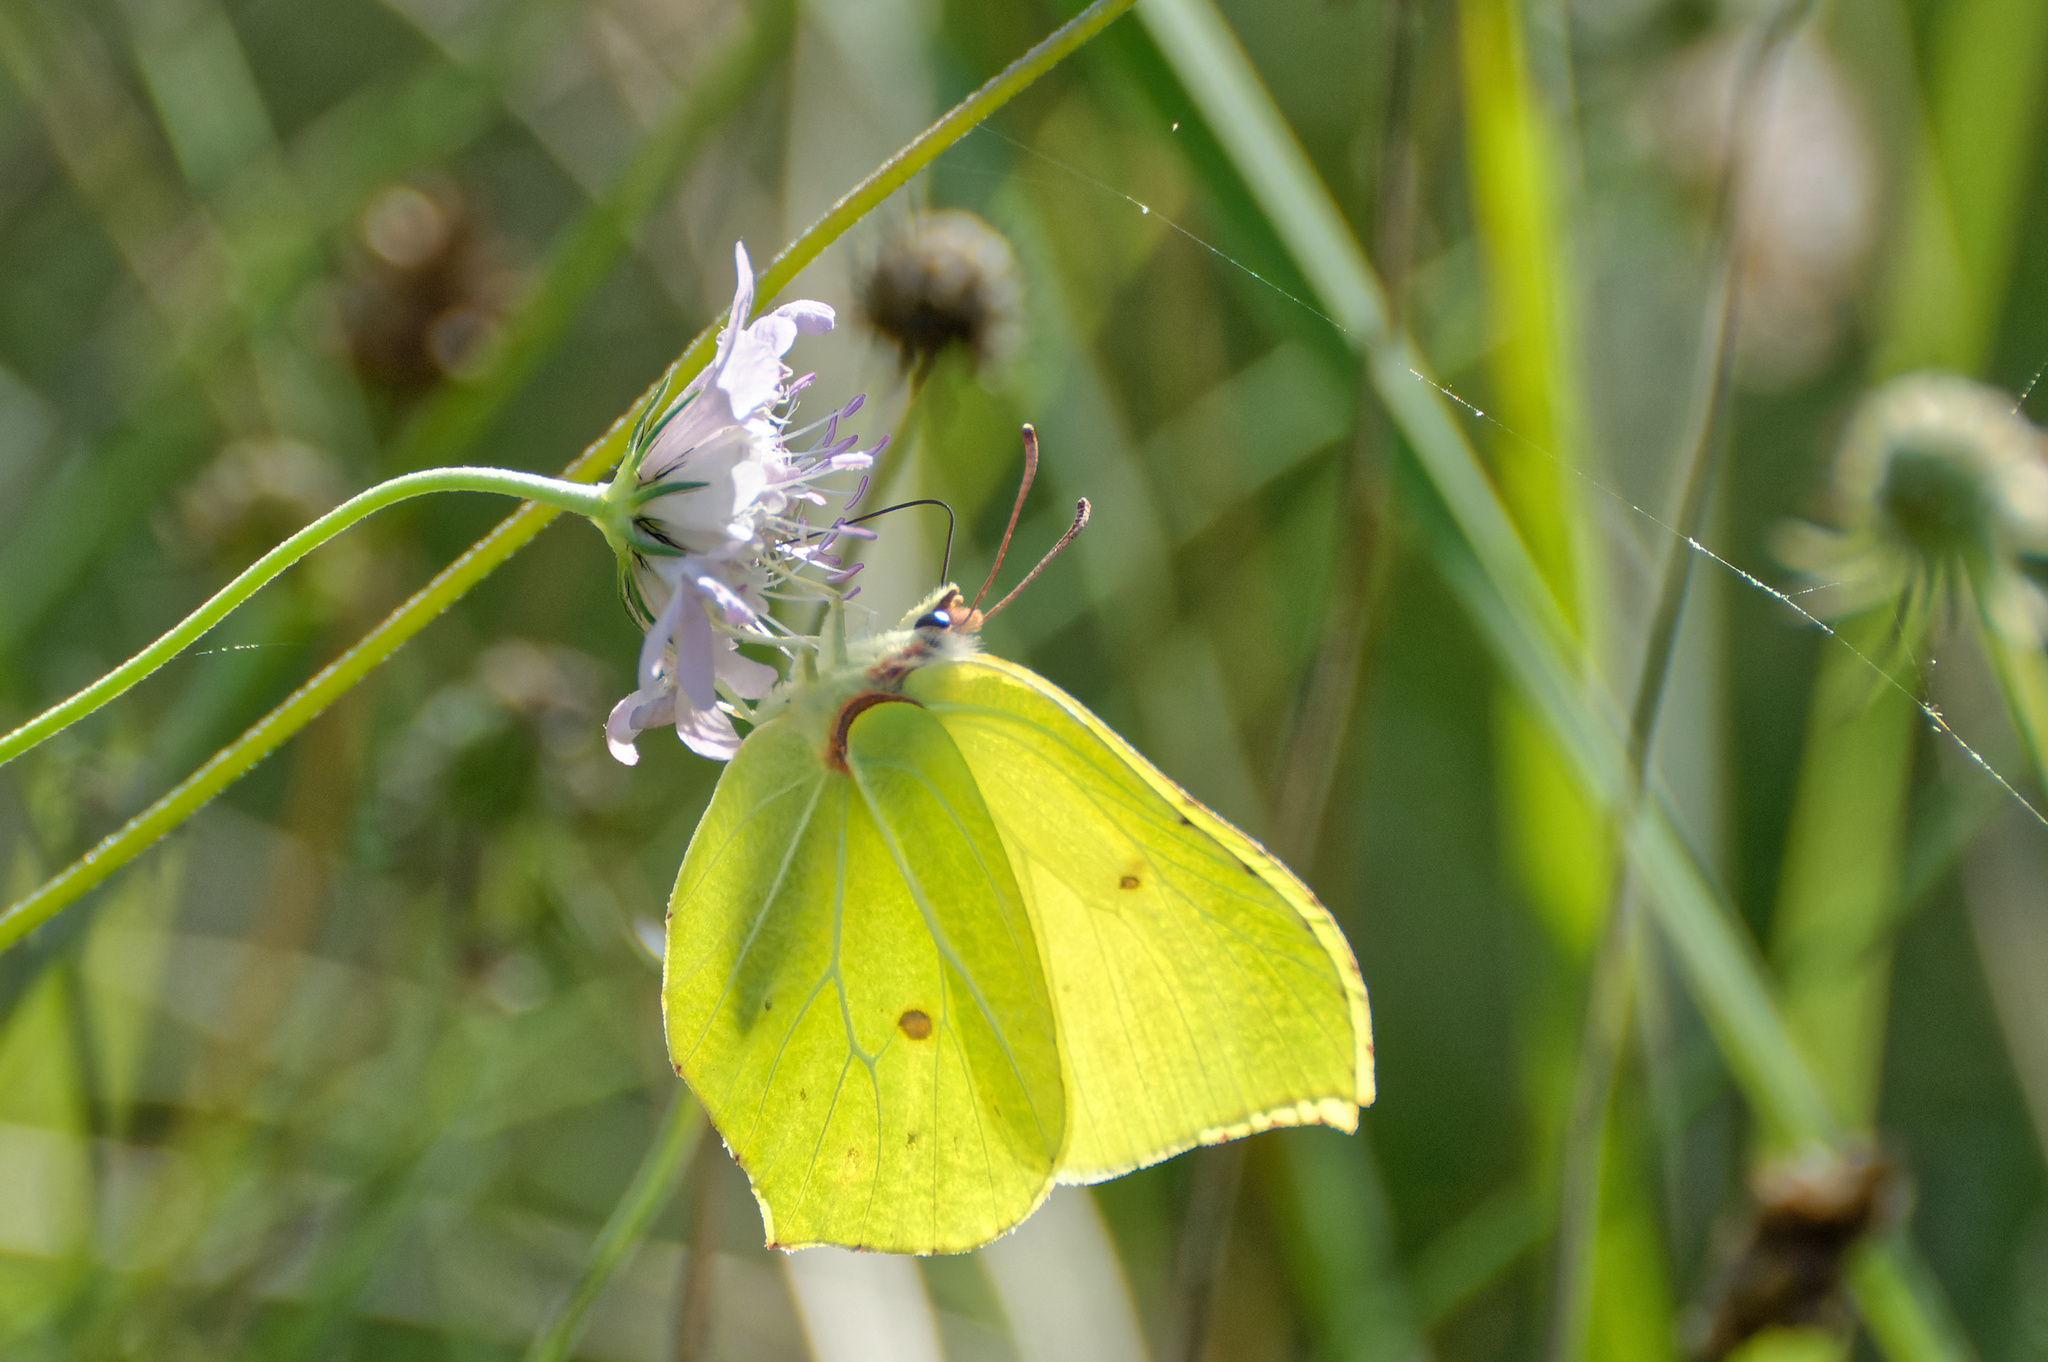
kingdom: Animalia
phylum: Arthropoda
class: Insecta
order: Lepidoptera
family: Pieridae
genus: Gonepteryx
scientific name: Gonepteryx rhamni
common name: Brimstone
